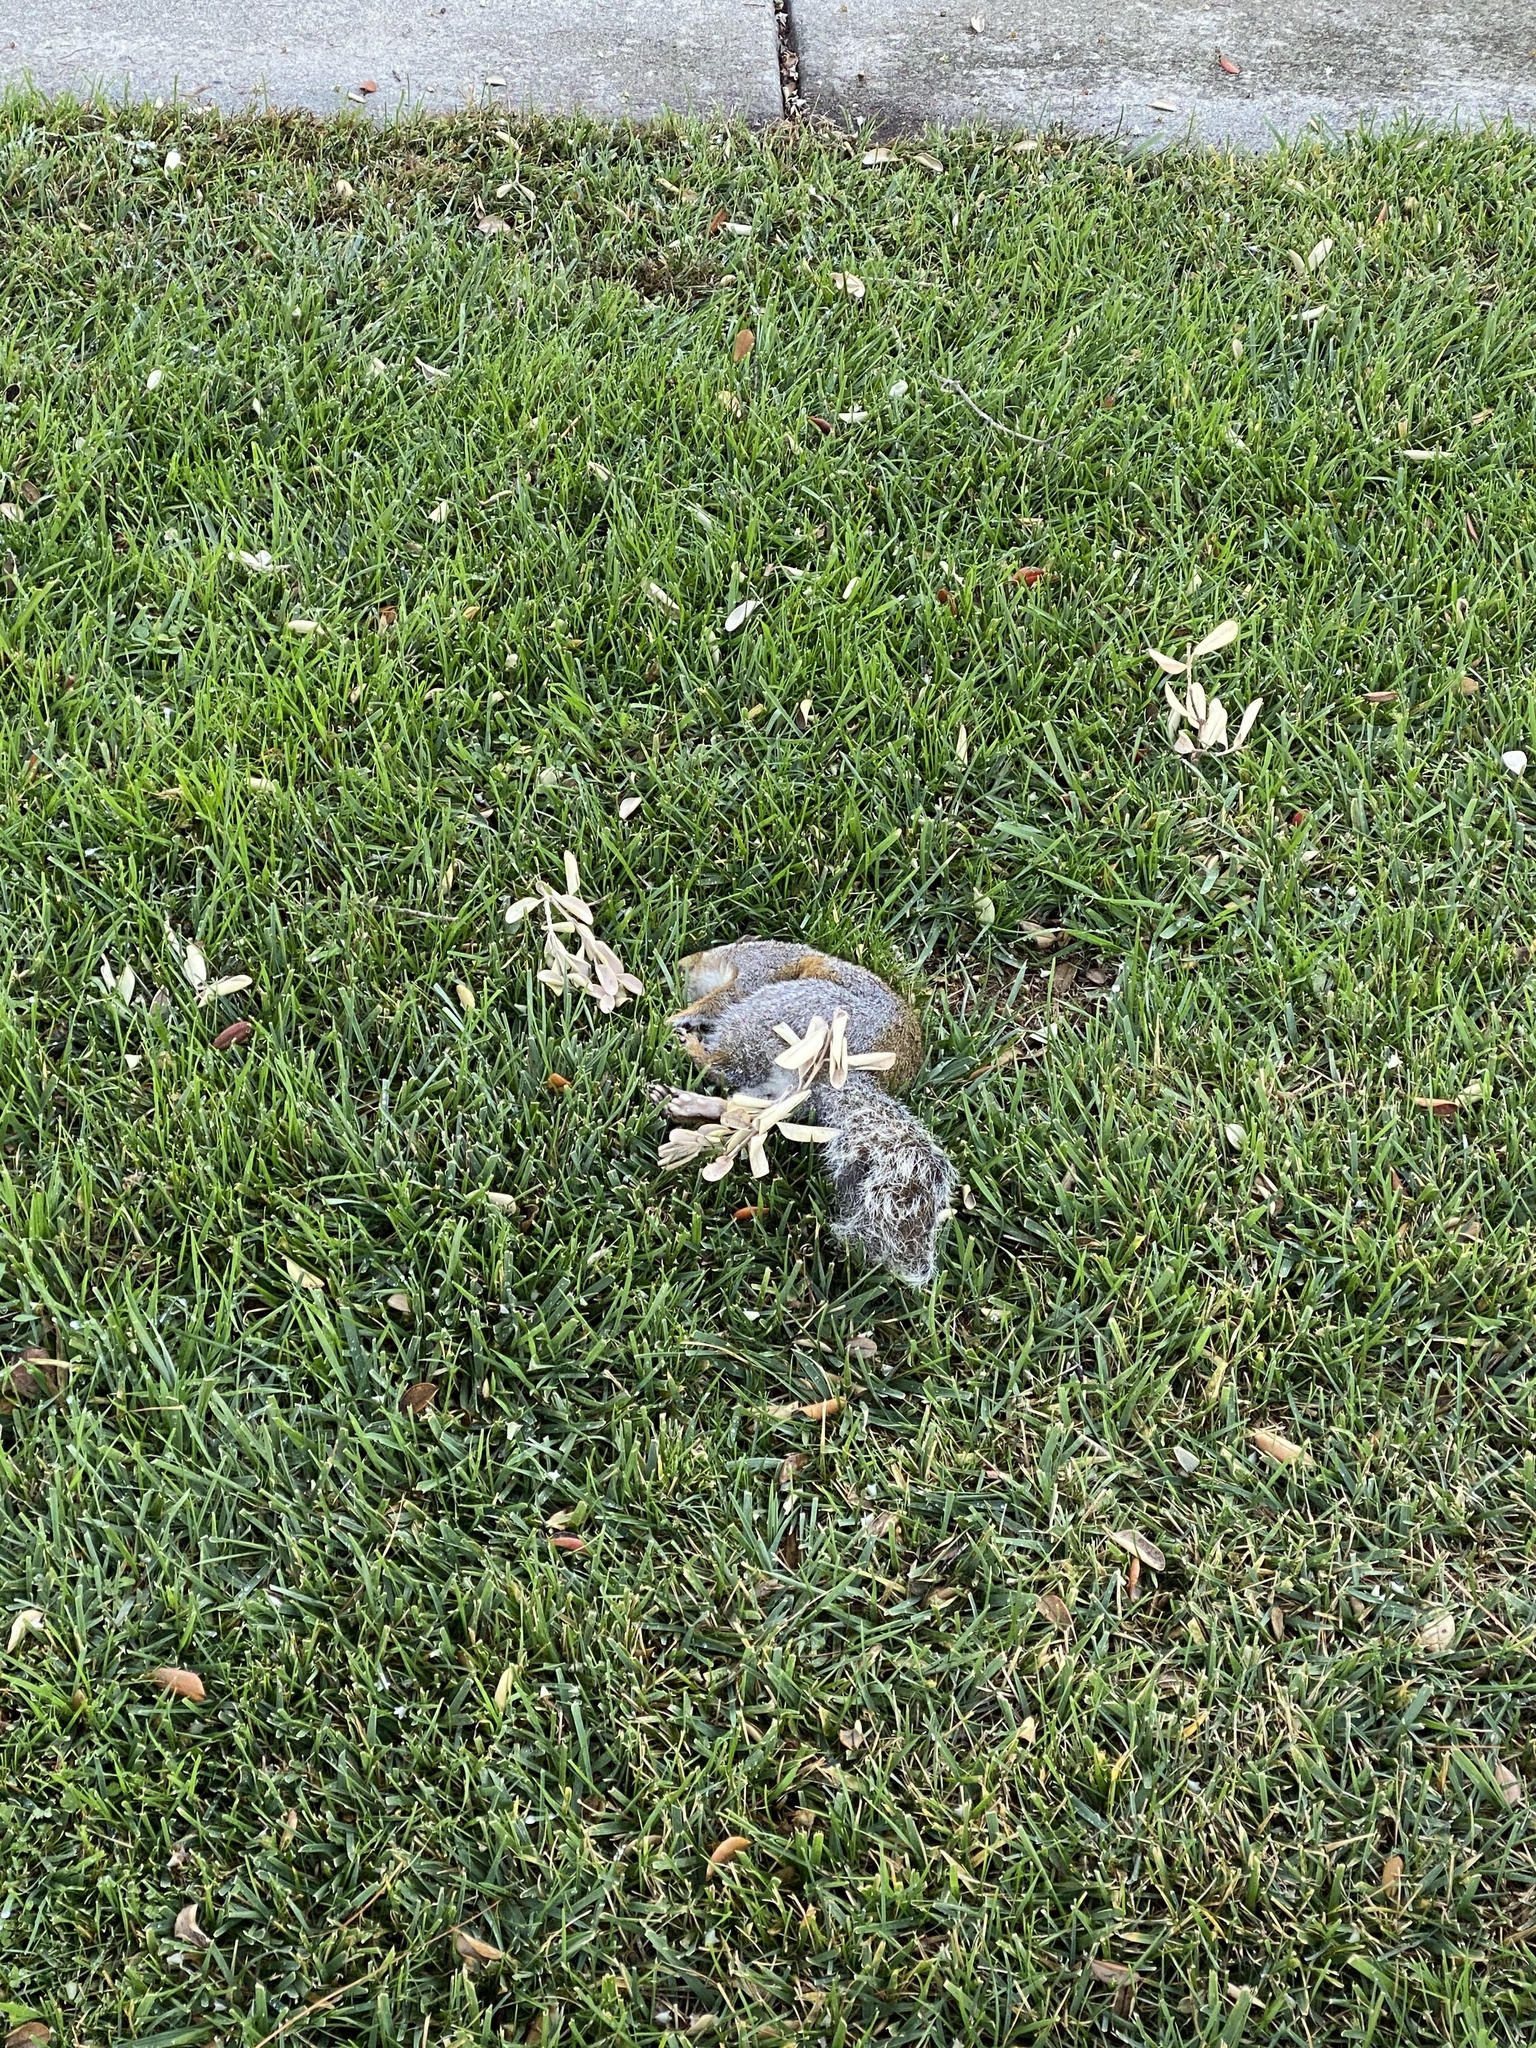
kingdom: Animalia
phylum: Chordata
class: Mammalia
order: Rodentia
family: Sciuridae
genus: Sciurus
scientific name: Sciurus carolinensis
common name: Eastern gray squirrel
